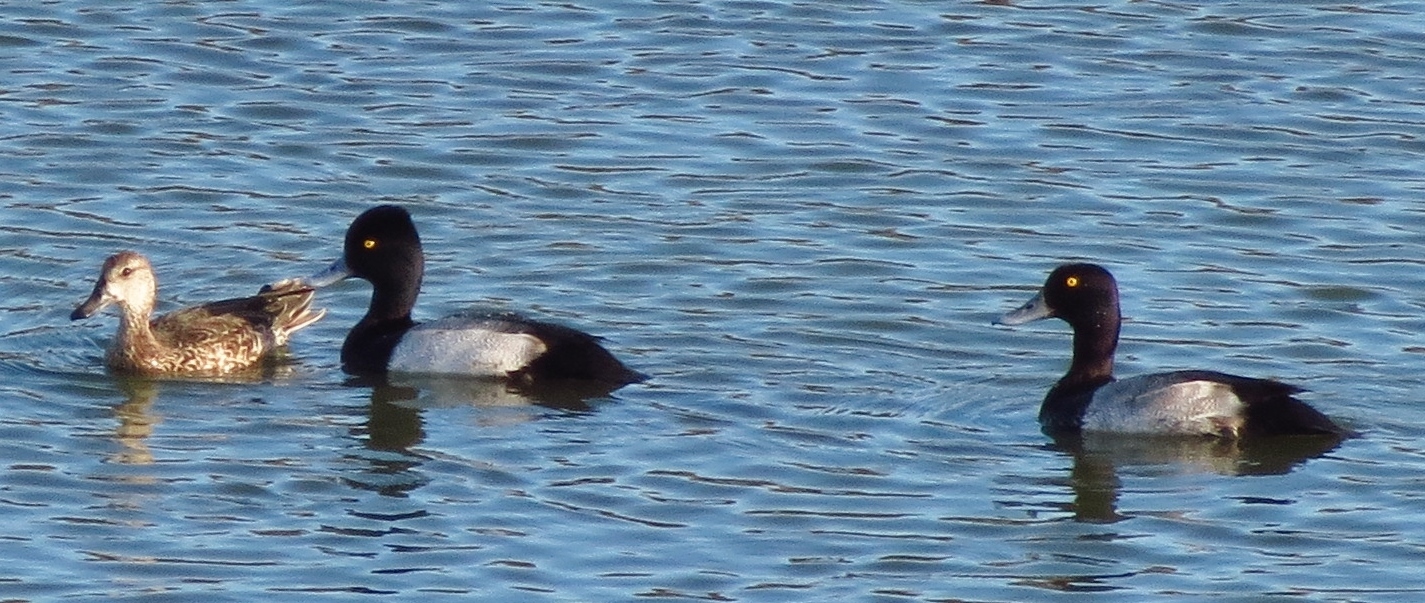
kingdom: Animalia
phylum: Chordata
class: Aves
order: Anseriformes
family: Anatidae
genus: Aythya
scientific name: Aythya affinis
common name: Lesser scaup
